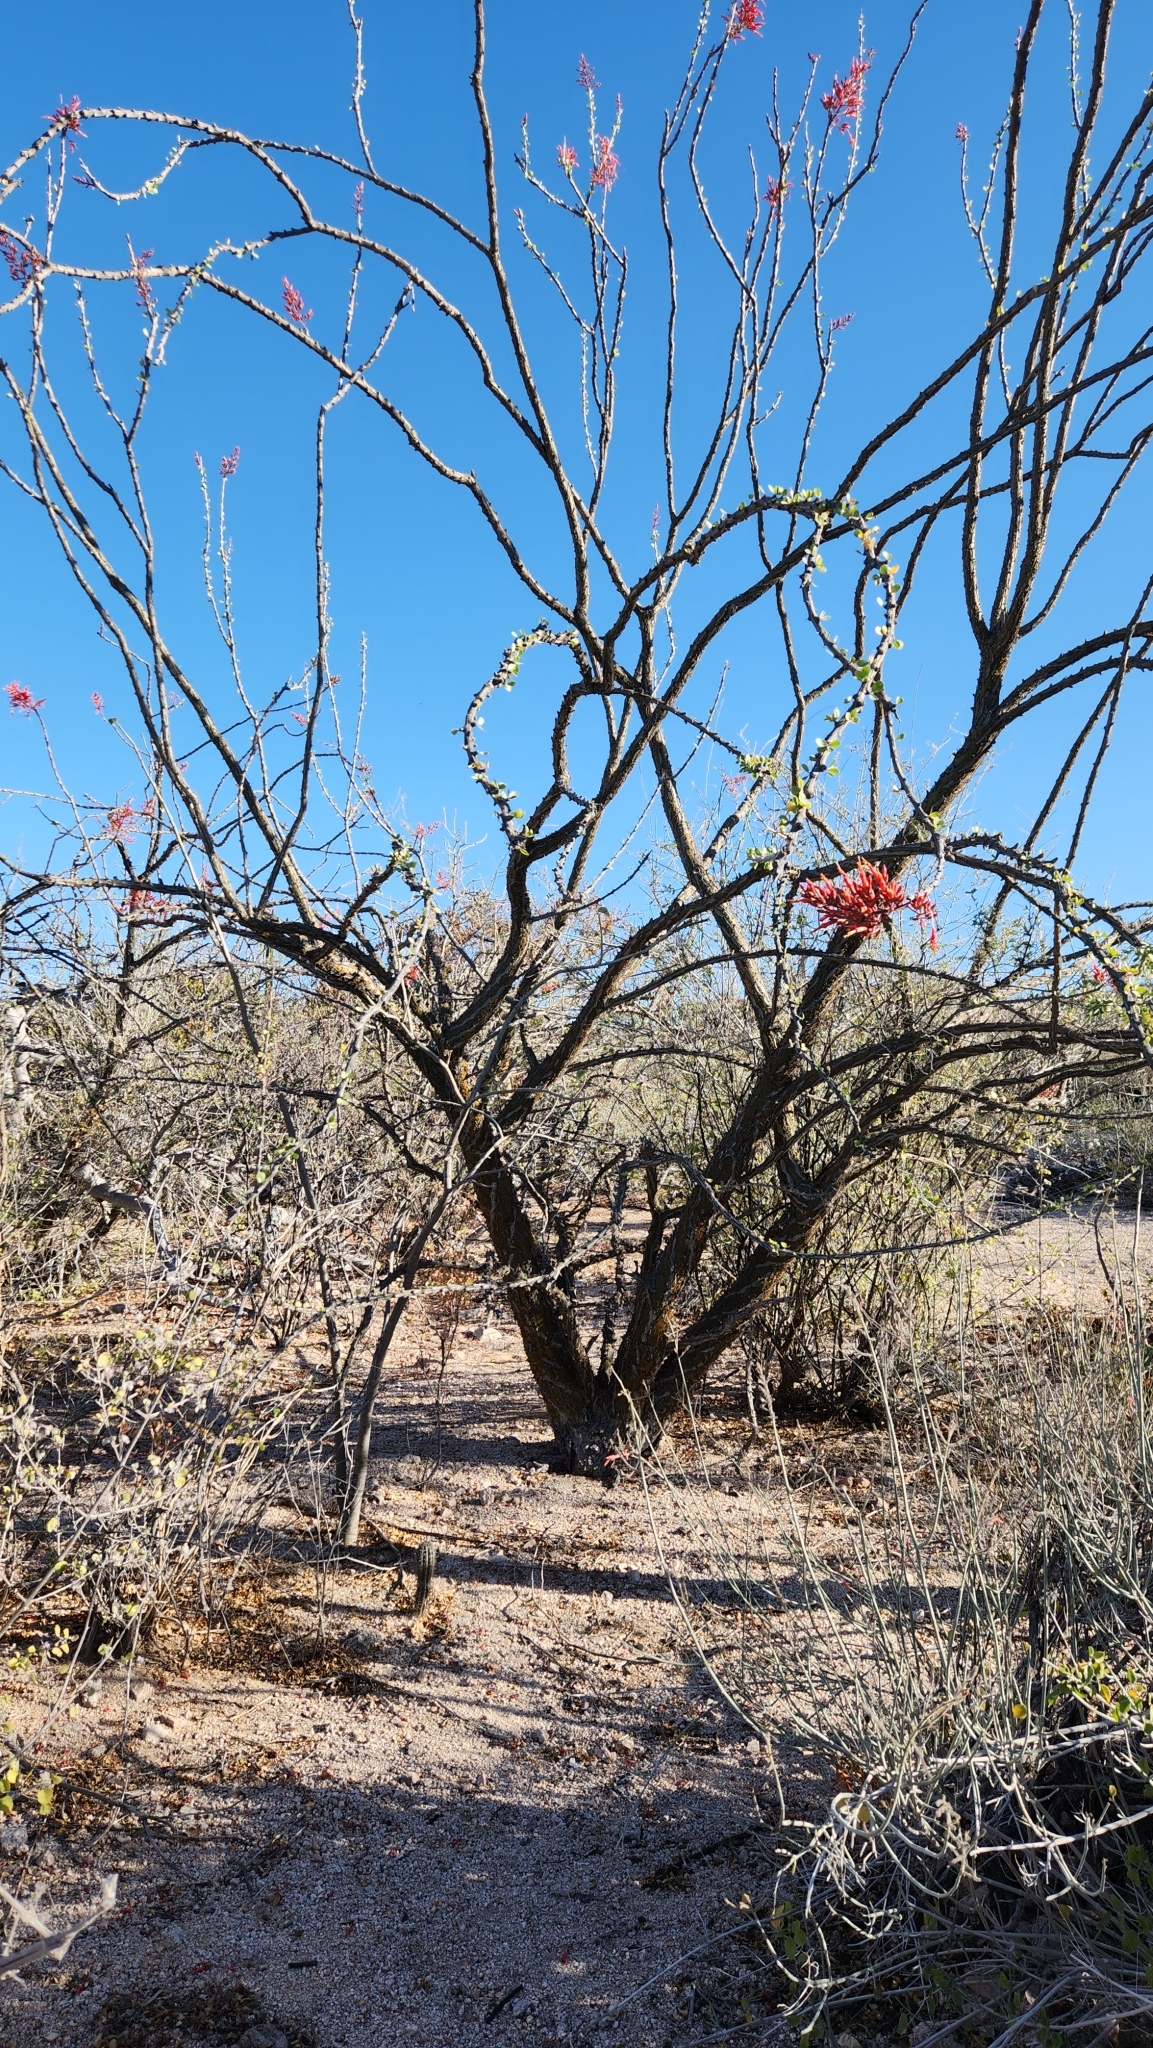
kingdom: Plantae
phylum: Tracheophyta
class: Magnoliopsida
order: Ericales
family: Fouquieriaceae
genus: Fouquieria
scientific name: Fouquieria diguetii
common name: Adam's tree
